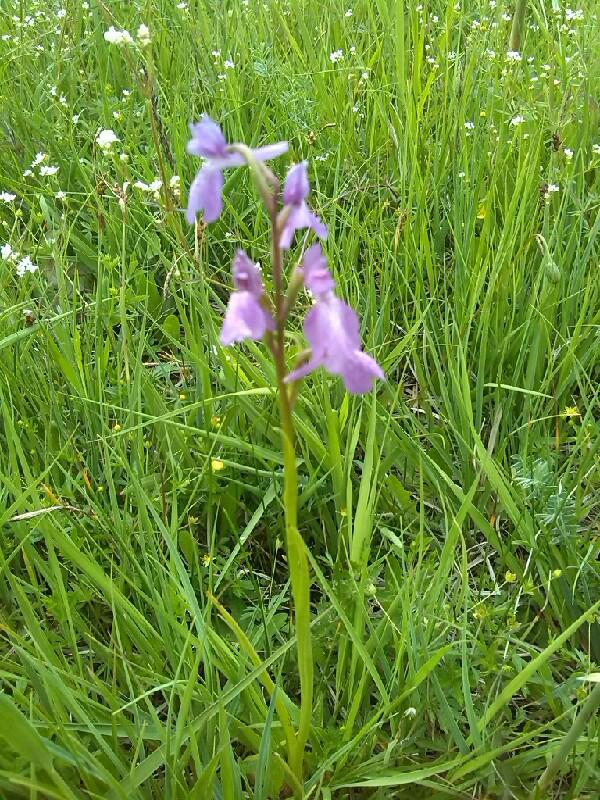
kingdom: Plantae
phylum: Tracheophyta
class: Liliopsida
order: Asparagales
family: Orchidaceae
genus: Anacamptis
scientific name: Anacamptis palustris
